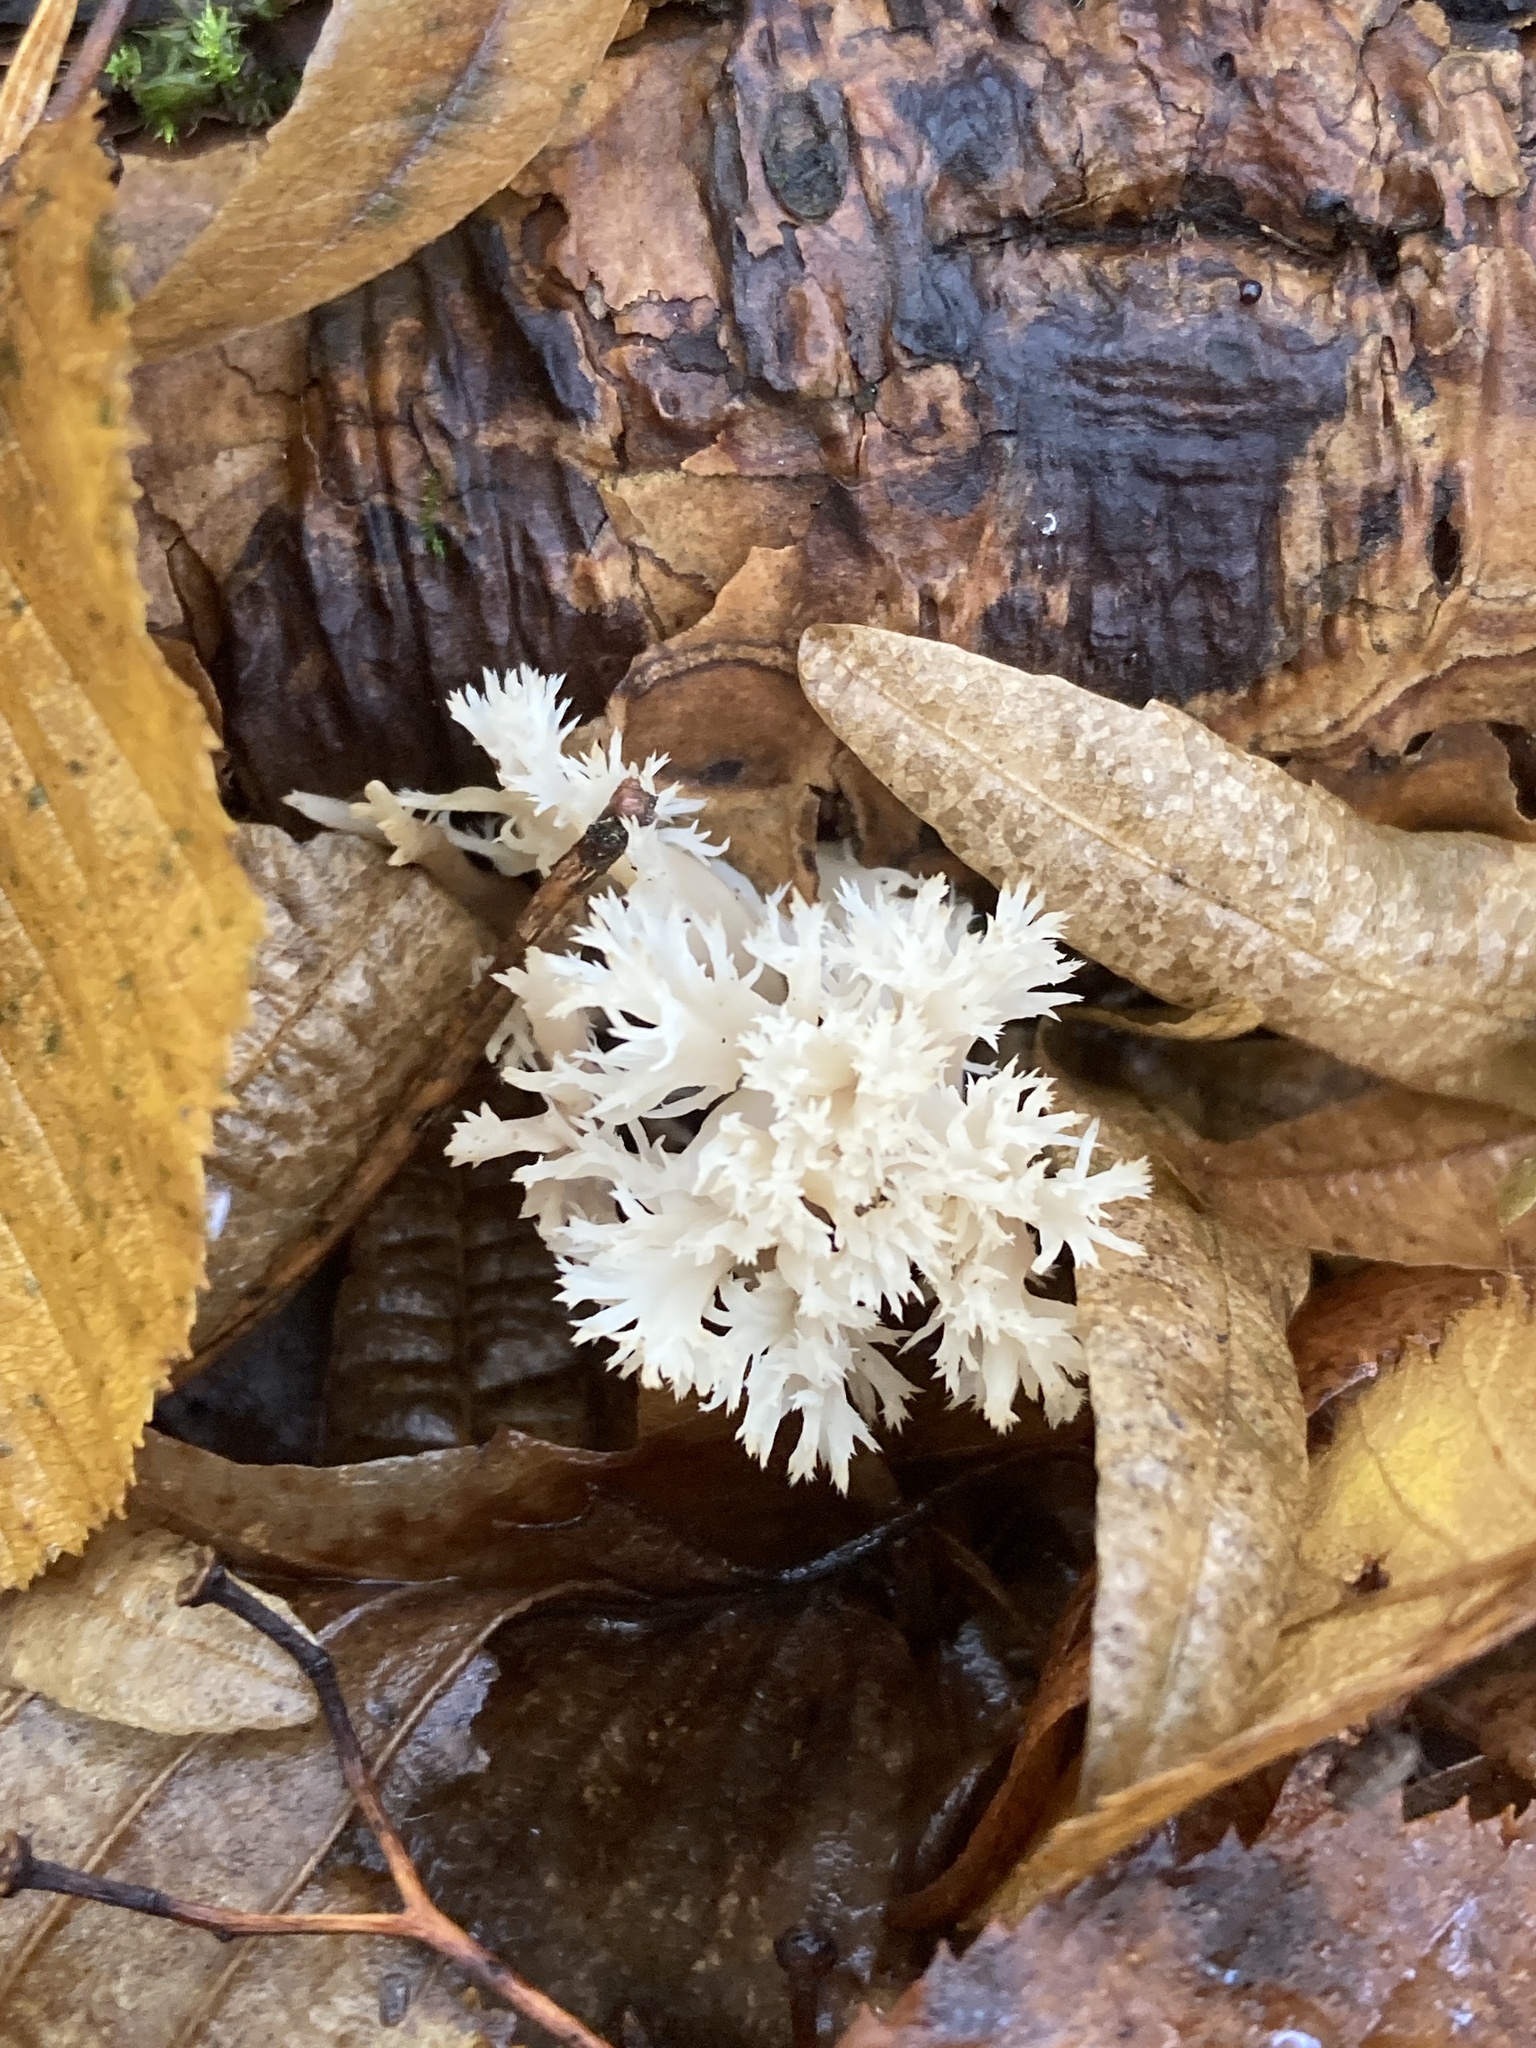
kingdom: Fungi
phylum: Basidiomycota
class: Agaricomycetes
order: Cantharellales
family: Hydnaceae
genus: Clavulina
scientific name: Clavulina coralloides
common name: Crested coral
